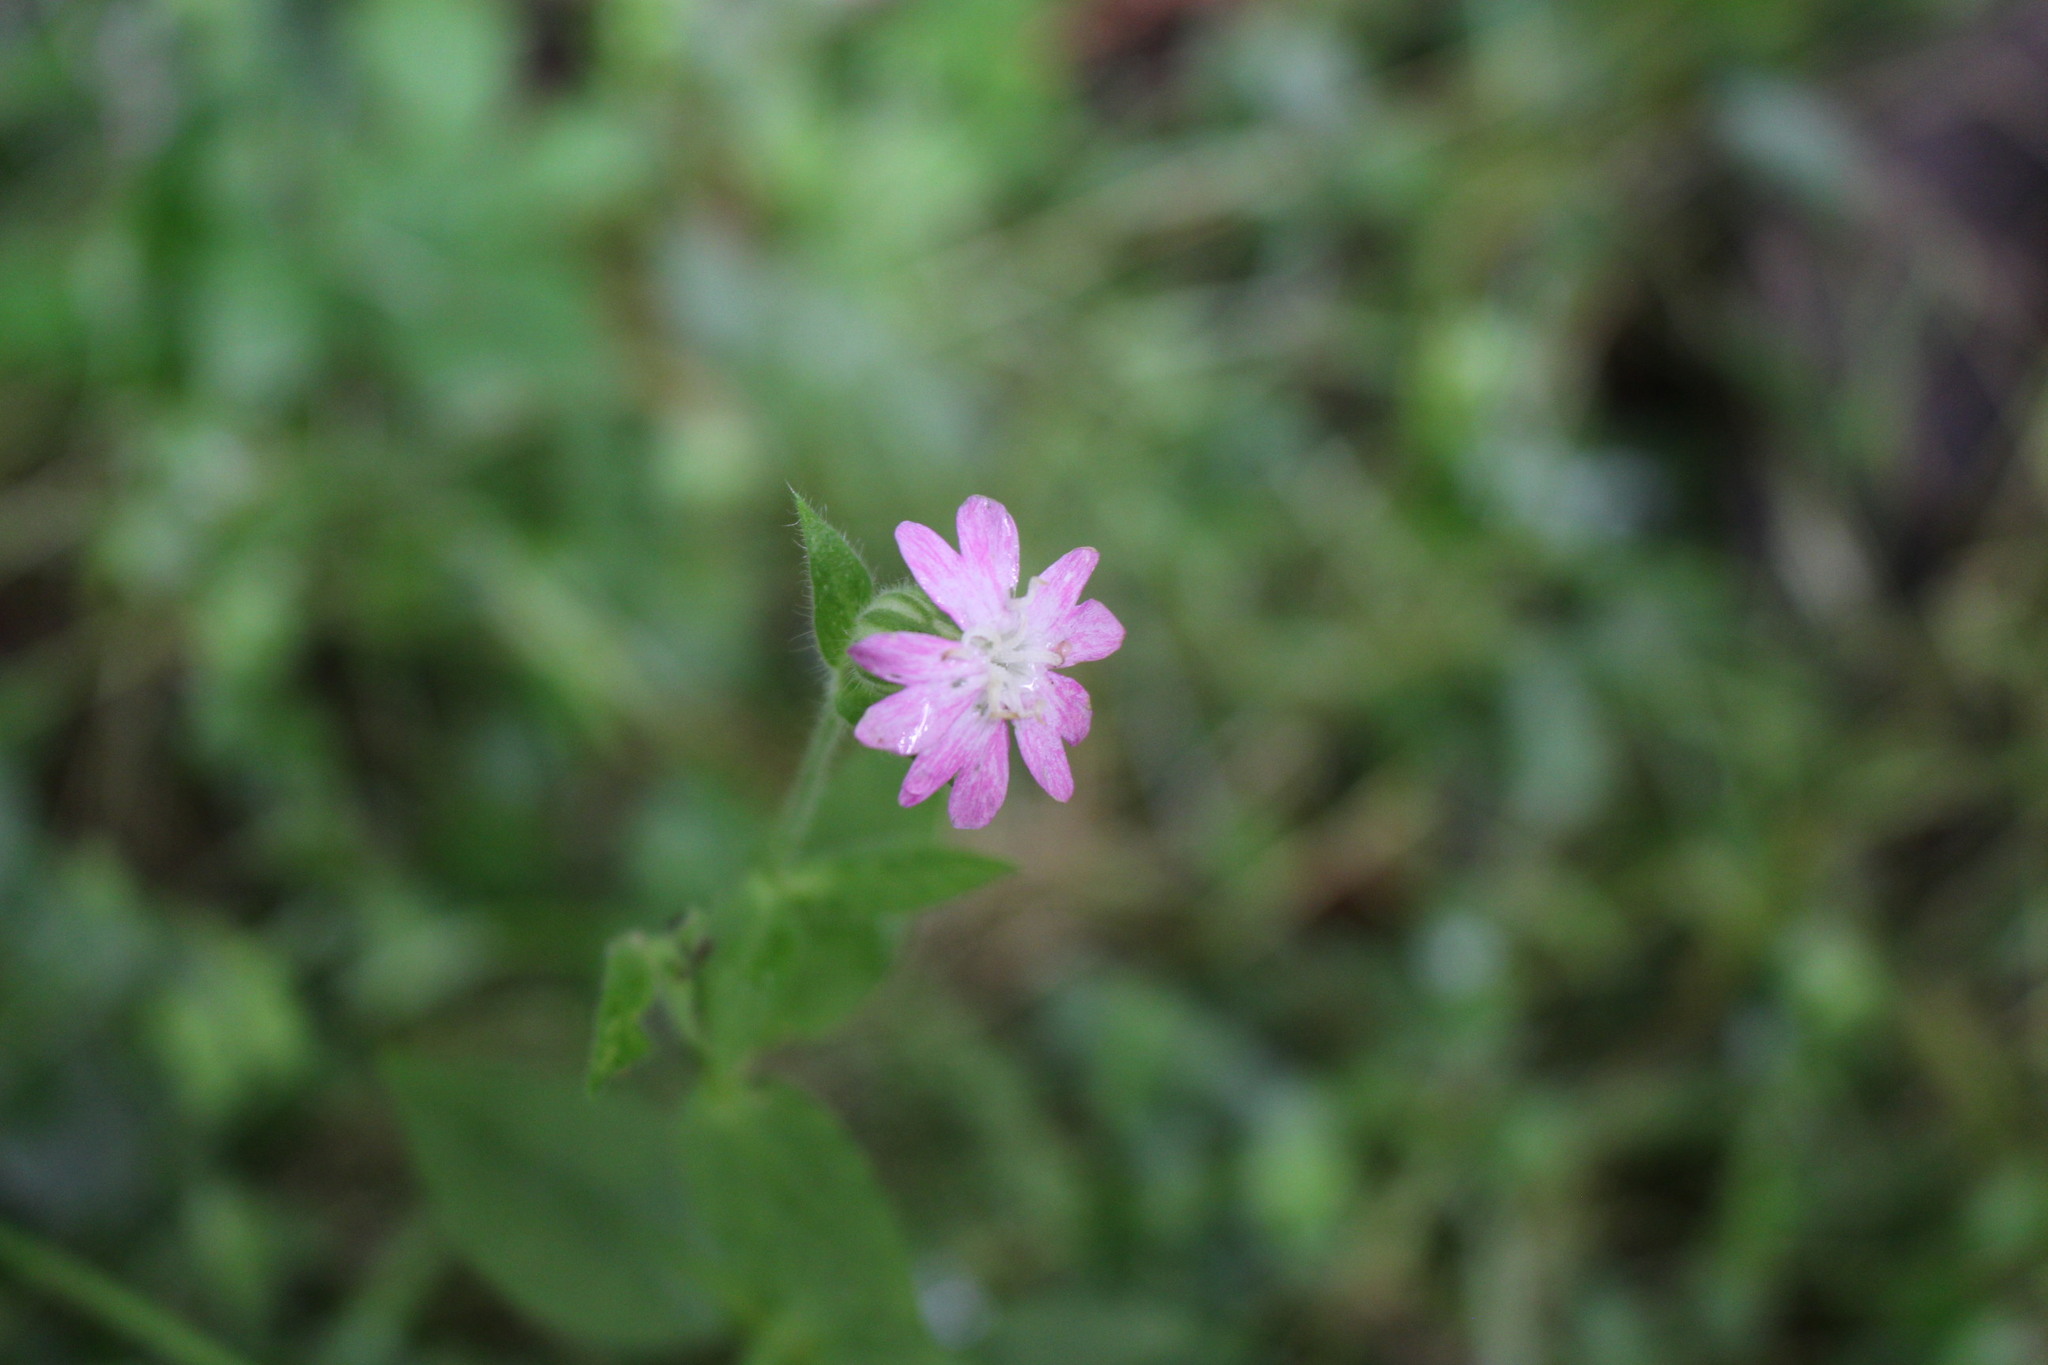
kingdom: Plantae
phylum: Tracheophyta
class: Magnoliopsida
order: Caryophyllales
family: Caryophyllaceae
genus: Silene
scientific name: Silene dioica
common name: Red campion
